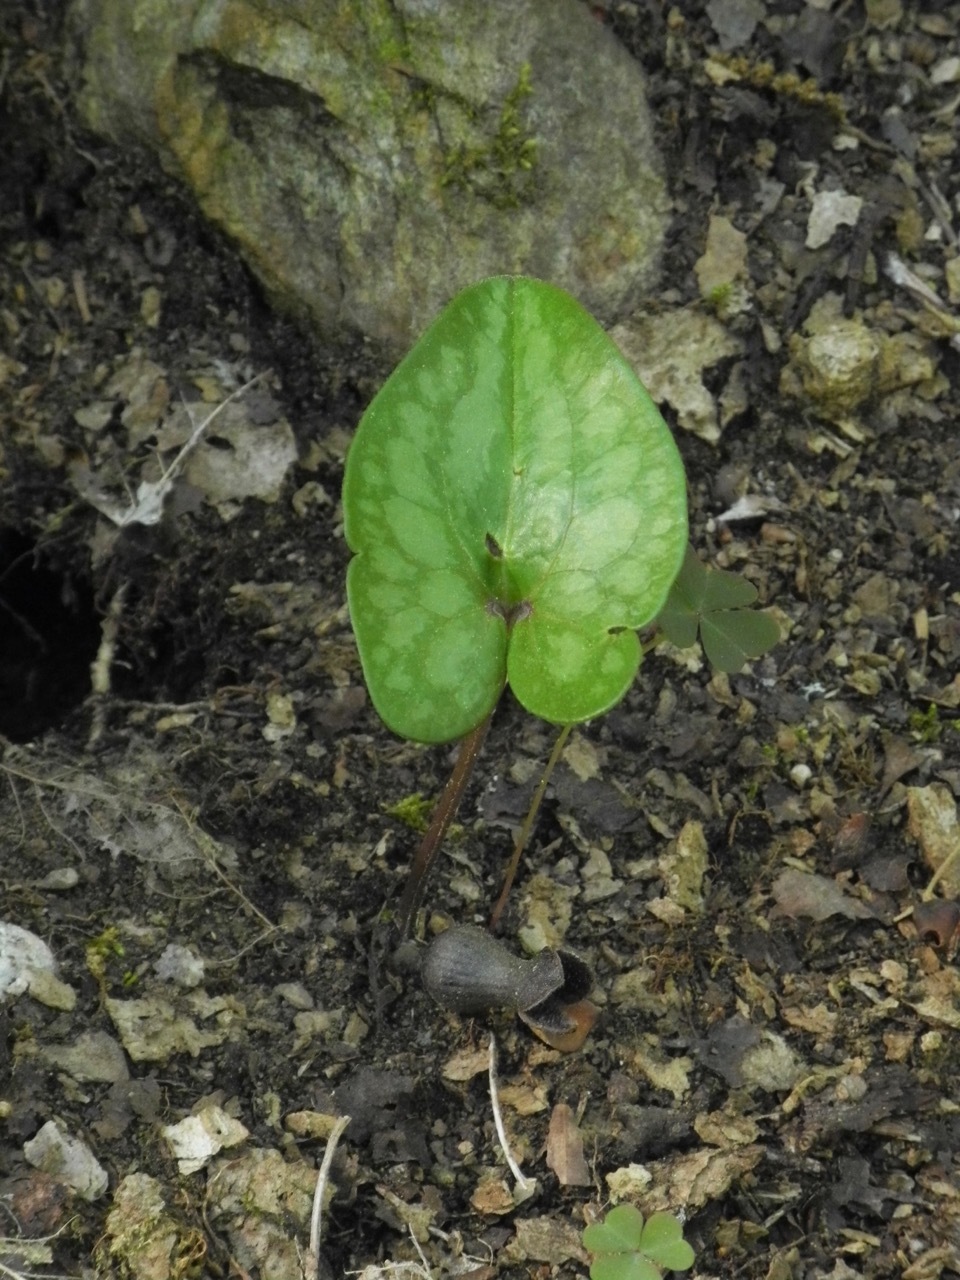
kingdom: Plantae
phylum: Tracheophyta
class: Magnoliopsida
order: Piperales
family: Aristolochiaceae
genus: Hexastylis
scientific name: Hexastylis arifolia
